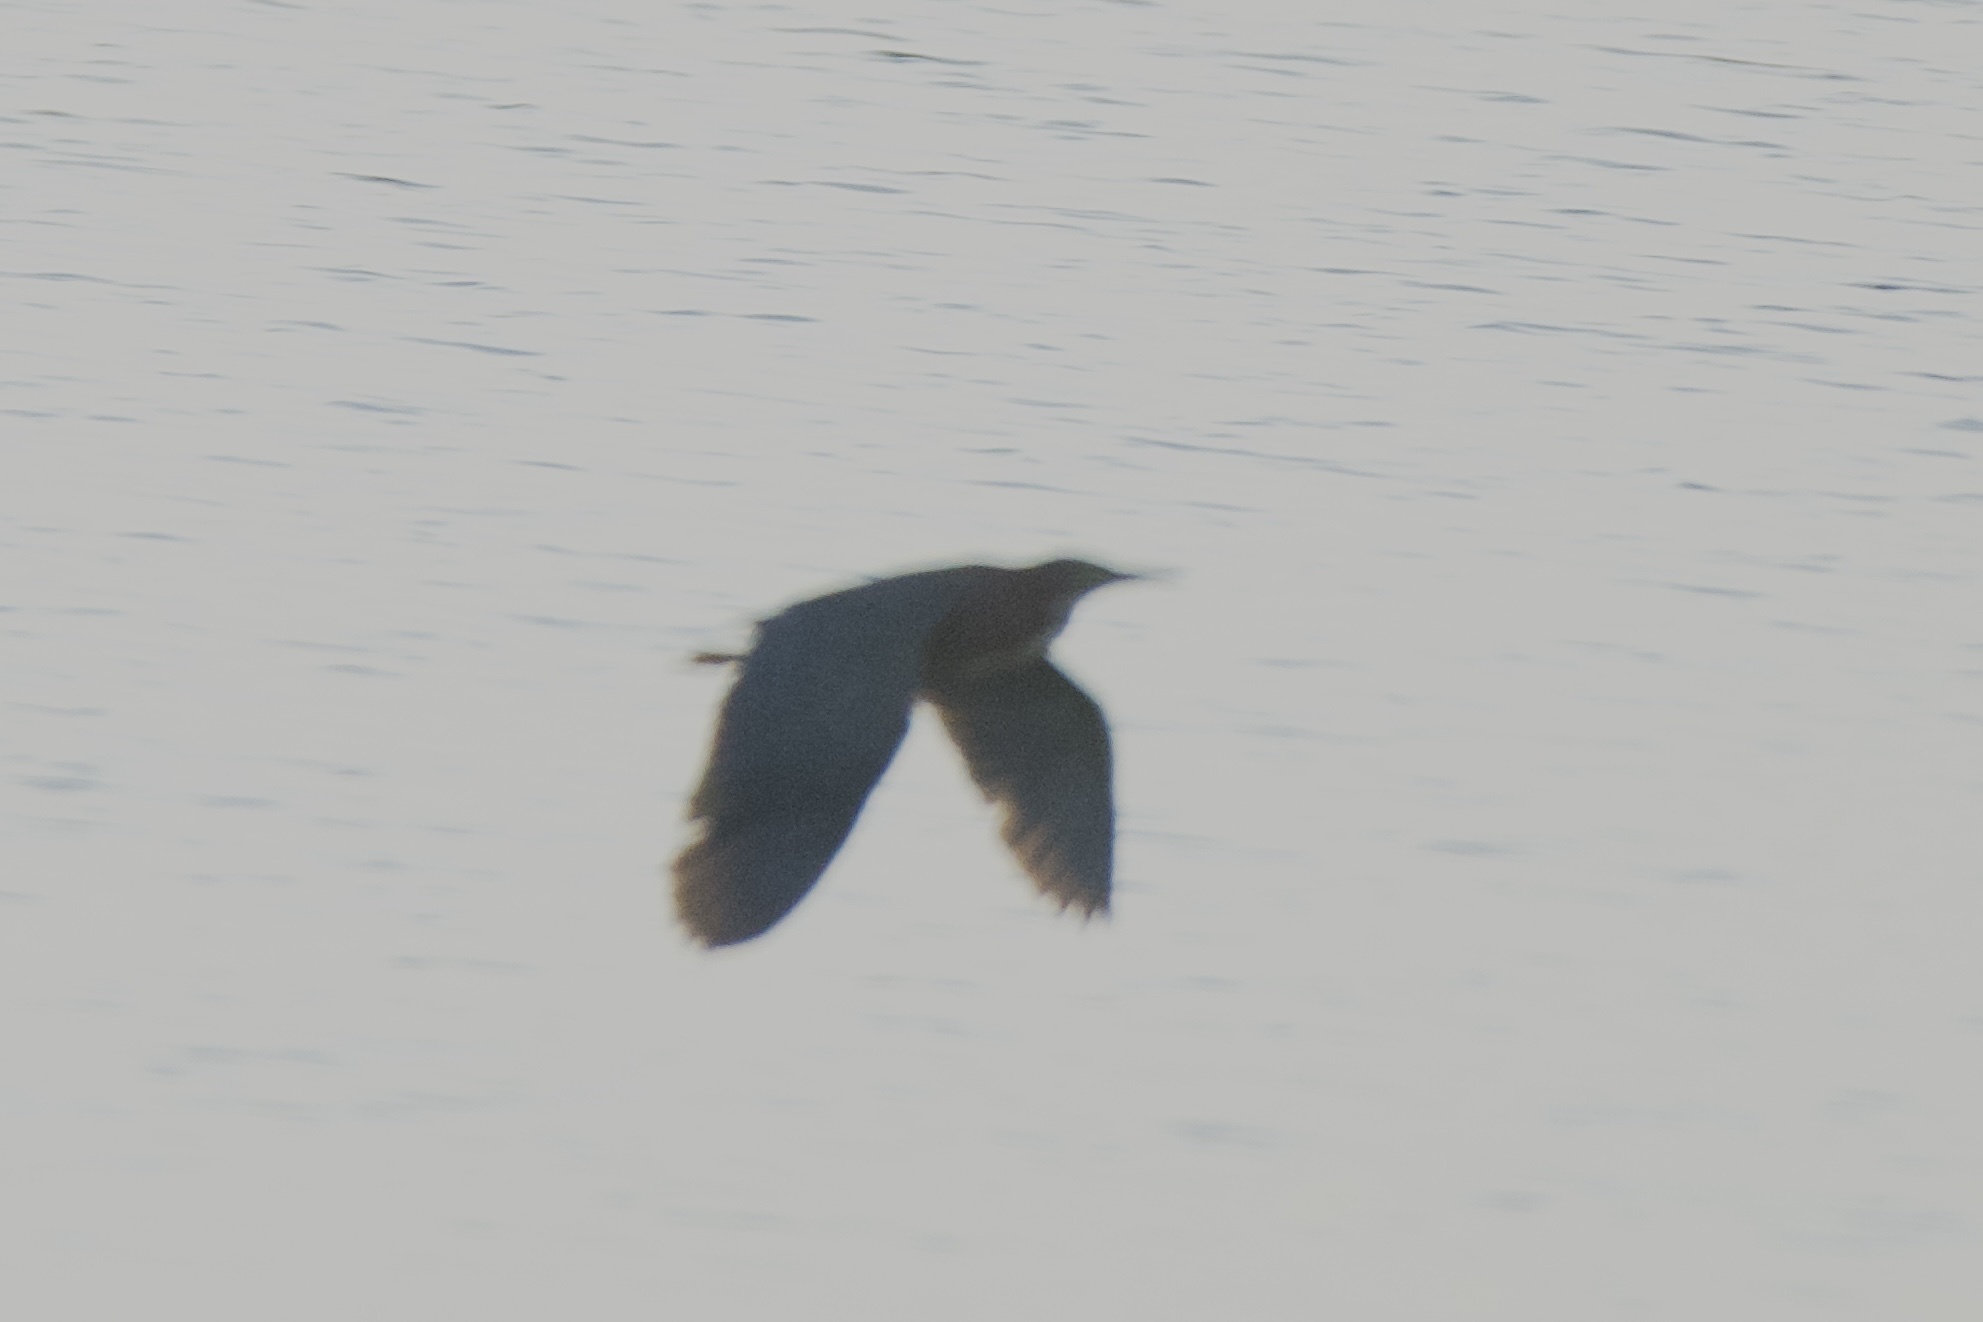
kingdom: Animalia
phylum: Chordata
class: Aves
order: Pelecaniformes
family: Ardeidae
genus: Butorides
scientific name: Butorides virescens
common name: Green heron
